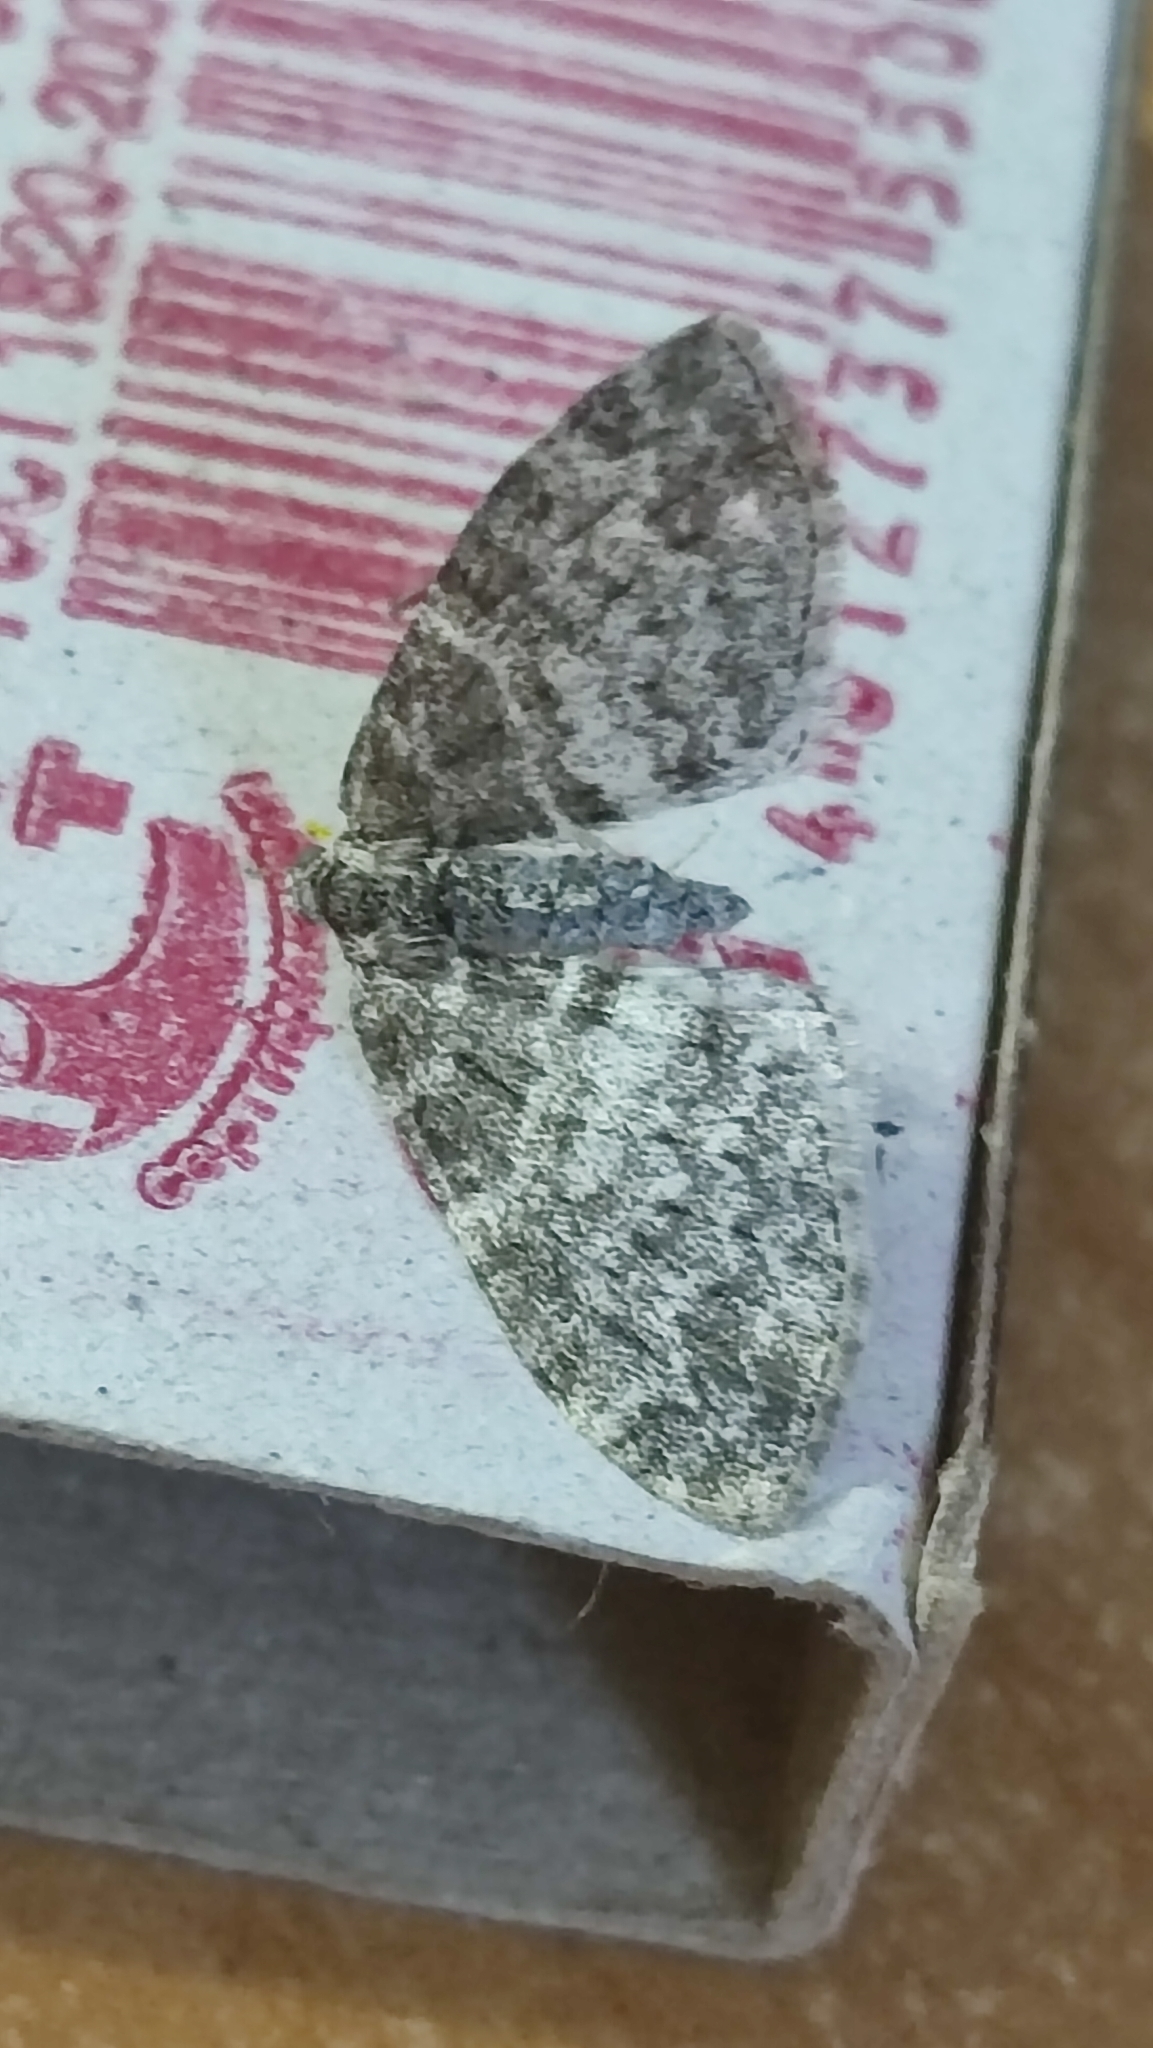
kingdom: Animalia
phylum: Arthropoda
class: Insecta
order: Lepidoptera
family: Geometridae
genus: Lobophora
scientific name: Lobophora halterata
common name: Seraphim
